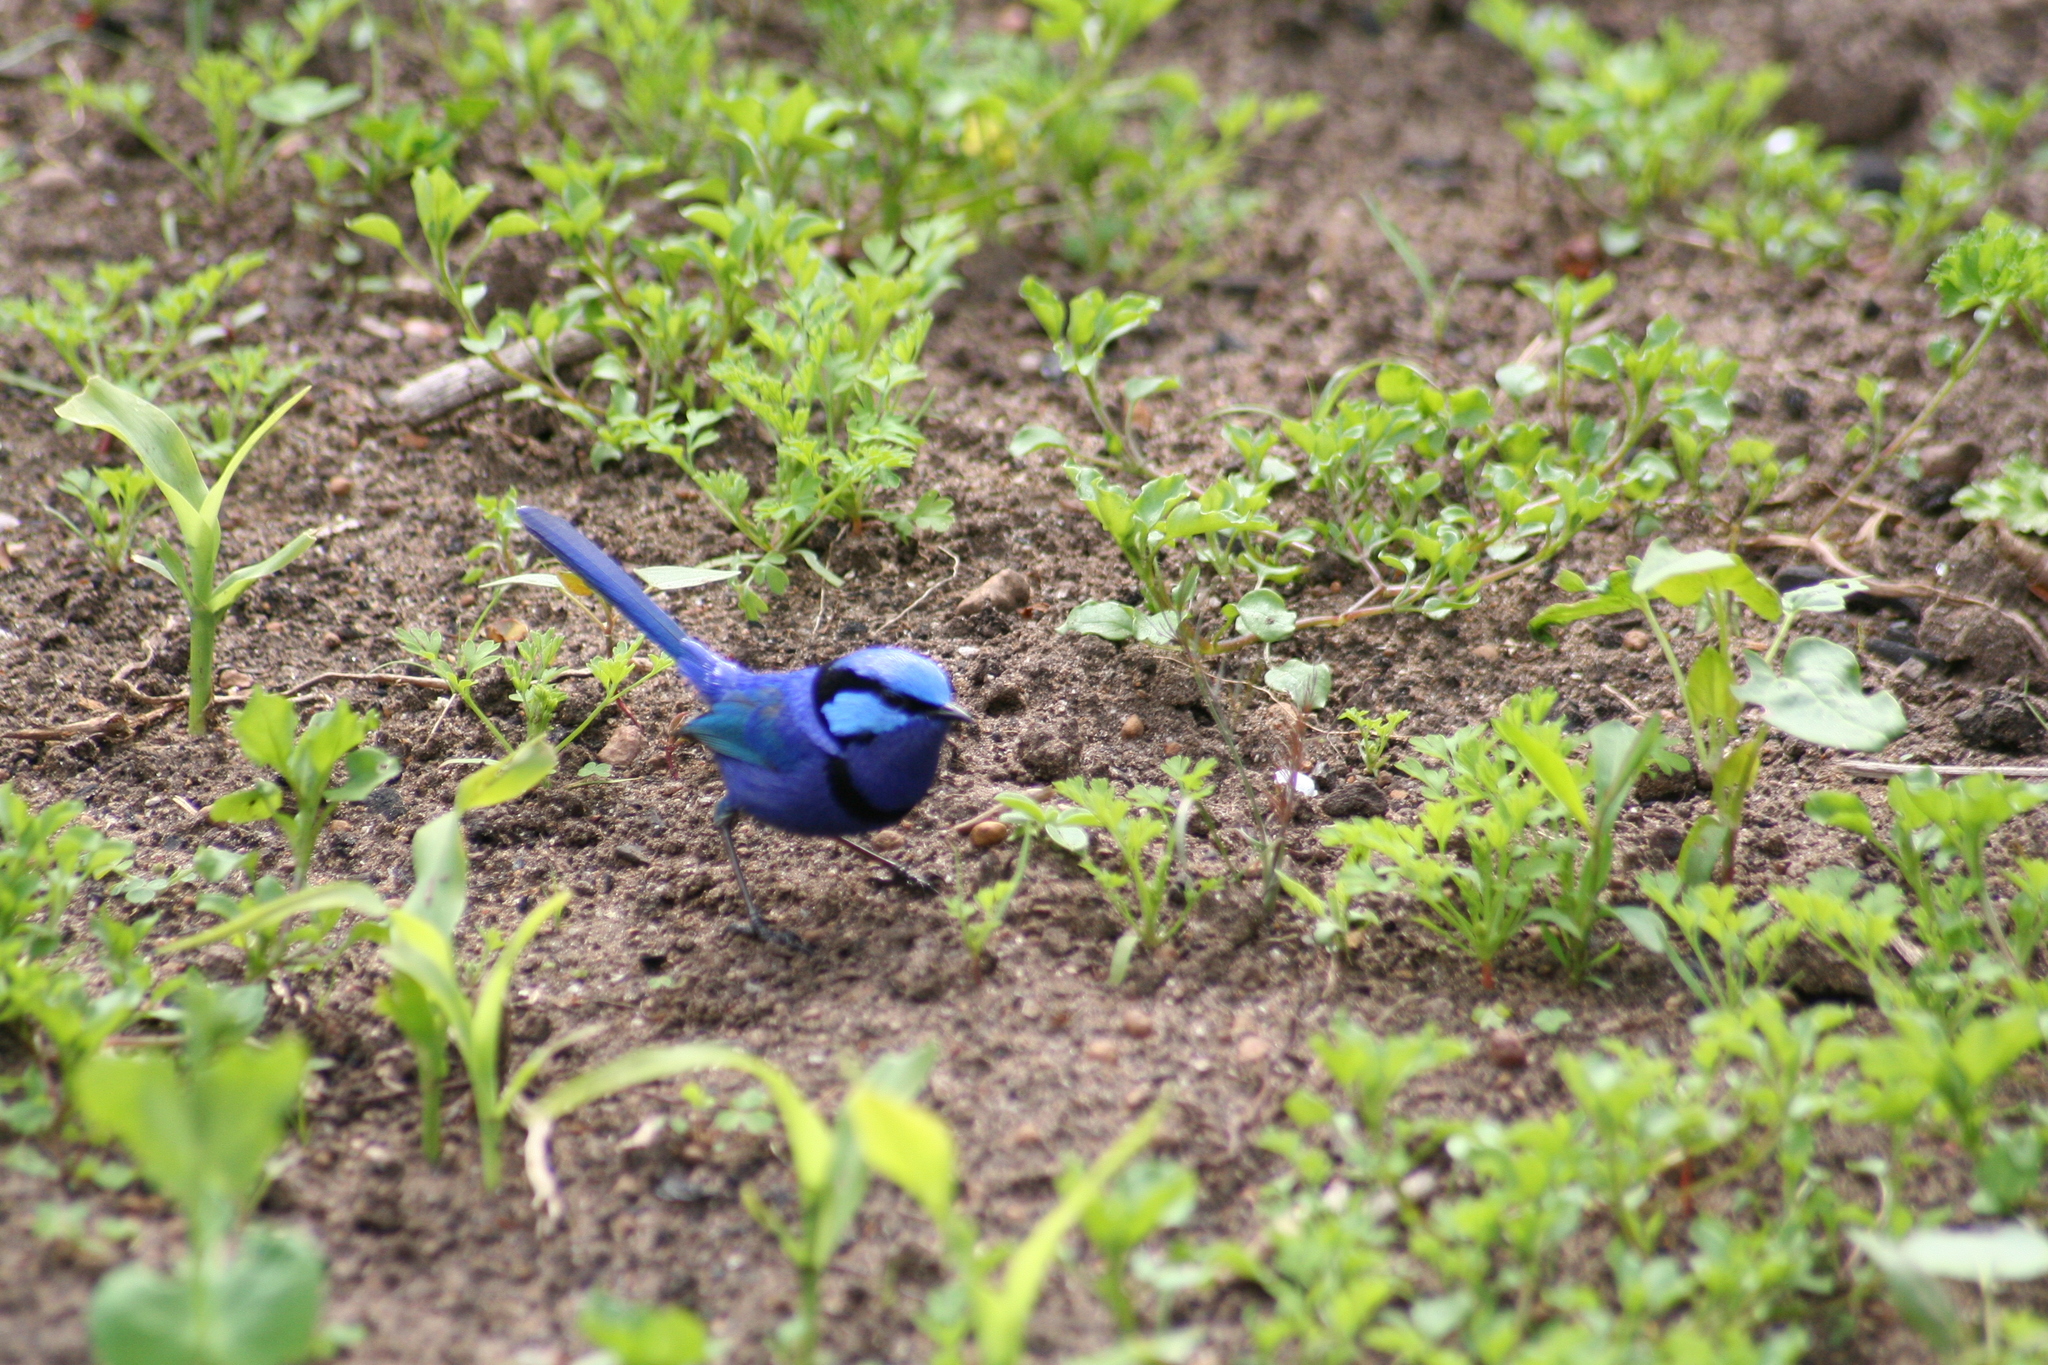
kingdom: Animalia
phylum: Chordata
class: Aves
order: Passeriformes
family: Maluridae
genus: Malurus
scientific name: Malurus splendens
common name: Splendid fairywren
